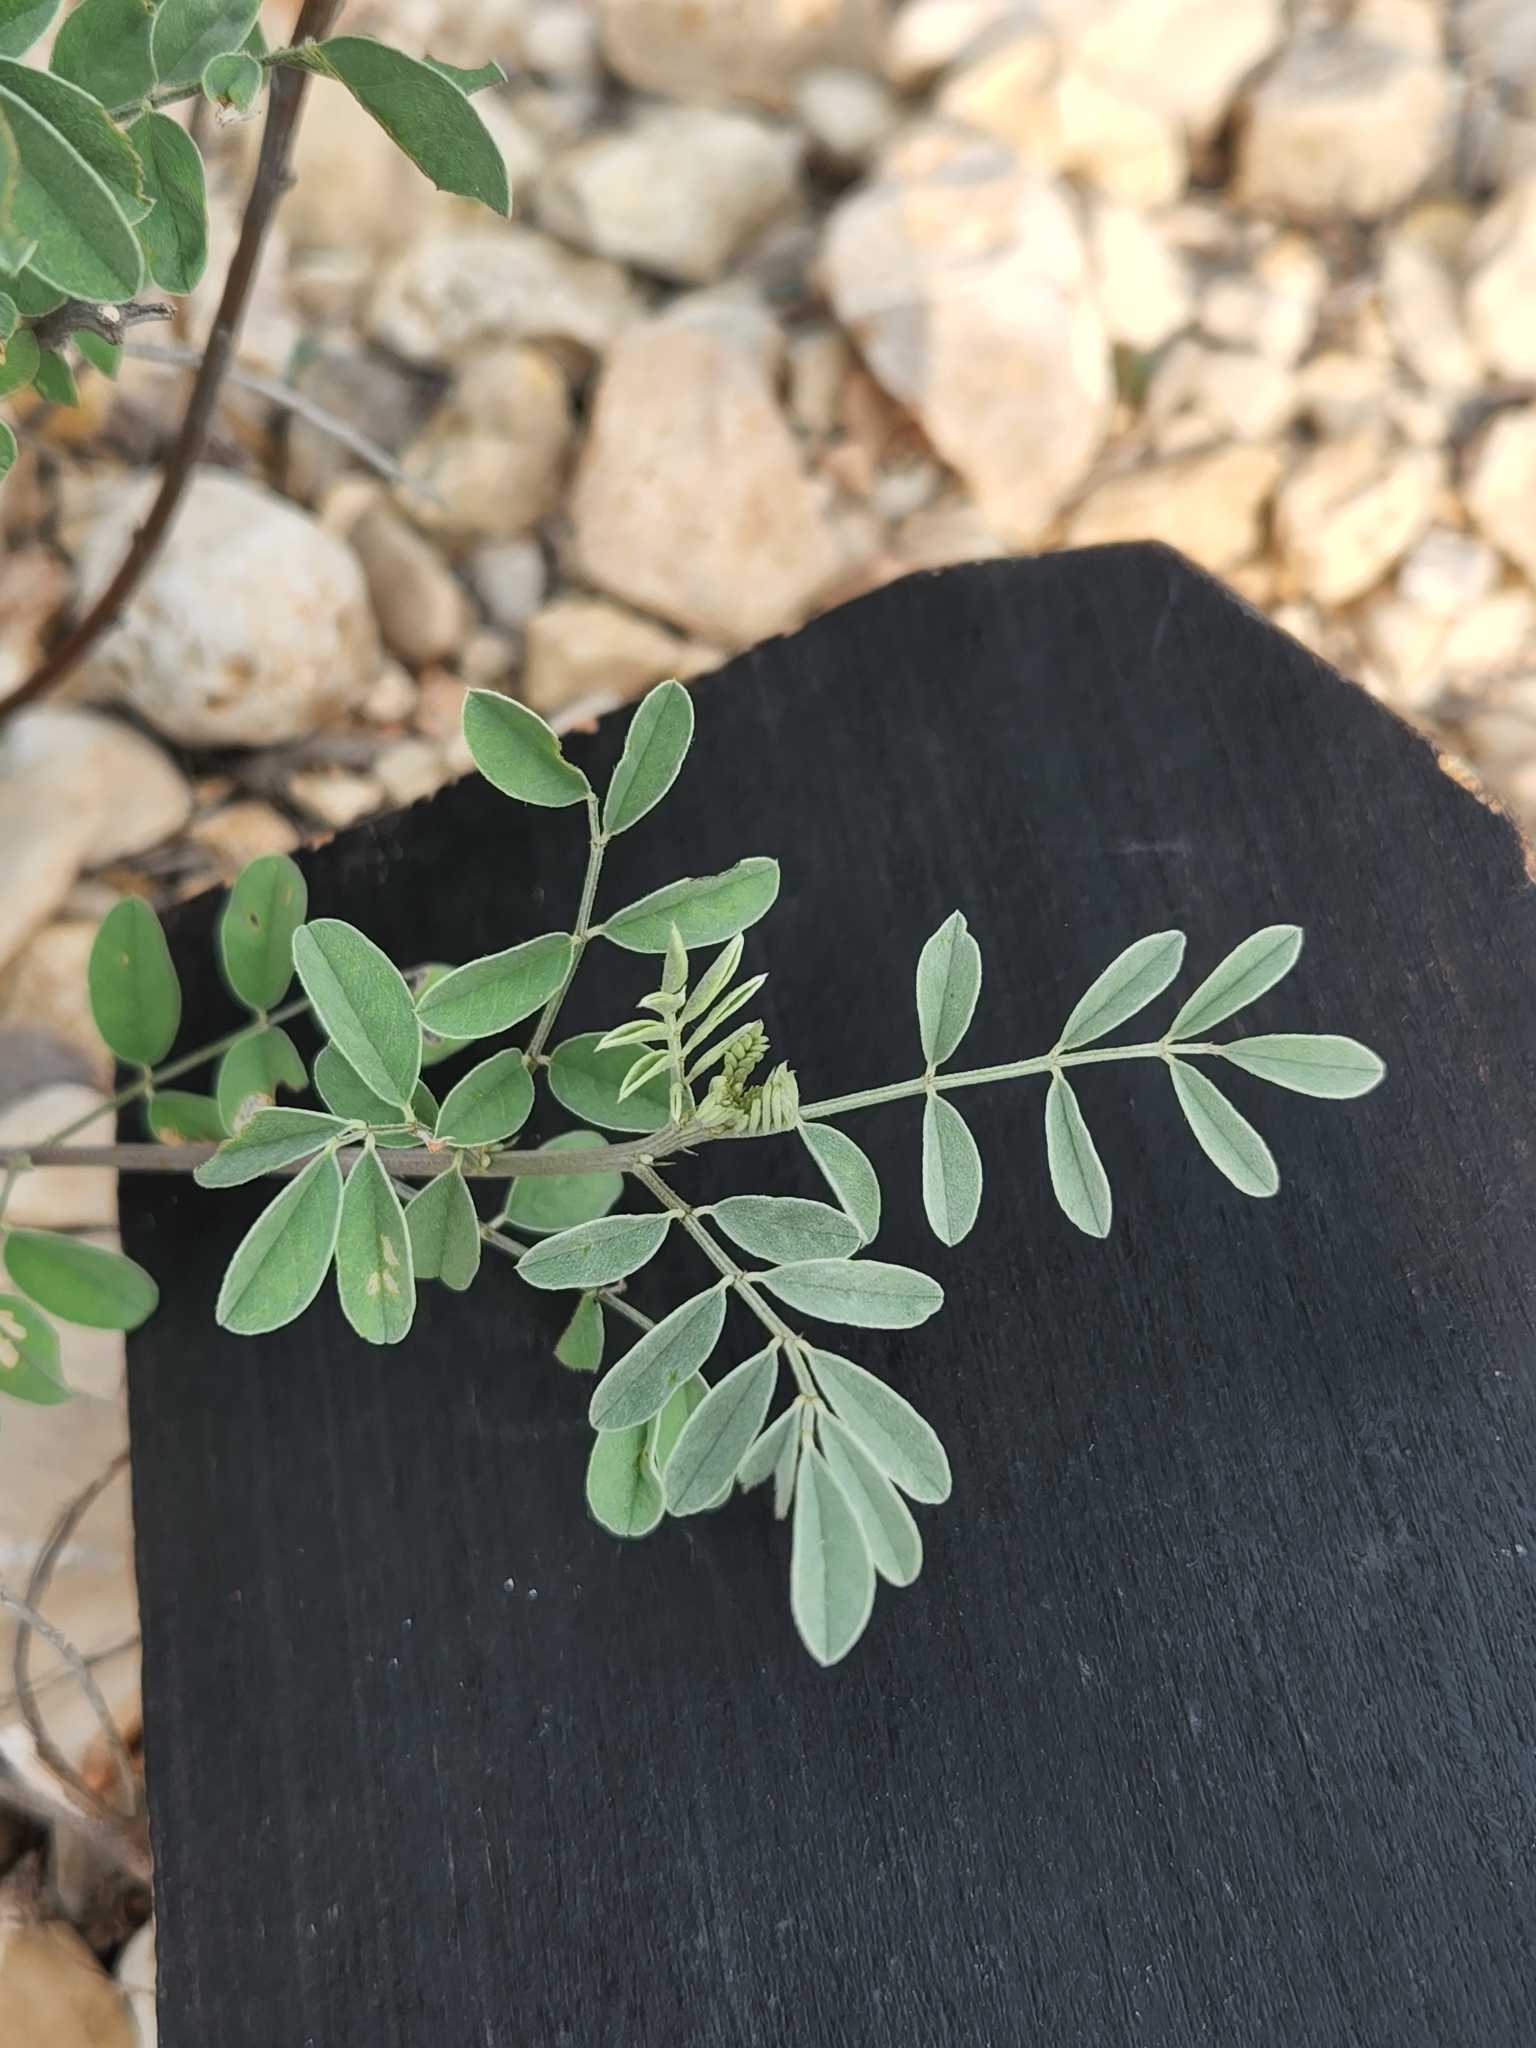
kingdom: Plantae
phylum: Tracheophyta
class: Magnoliopsida
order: Fabales
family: Fabaceae
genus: Indigofera
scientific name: Indigofera lindheimeriana
